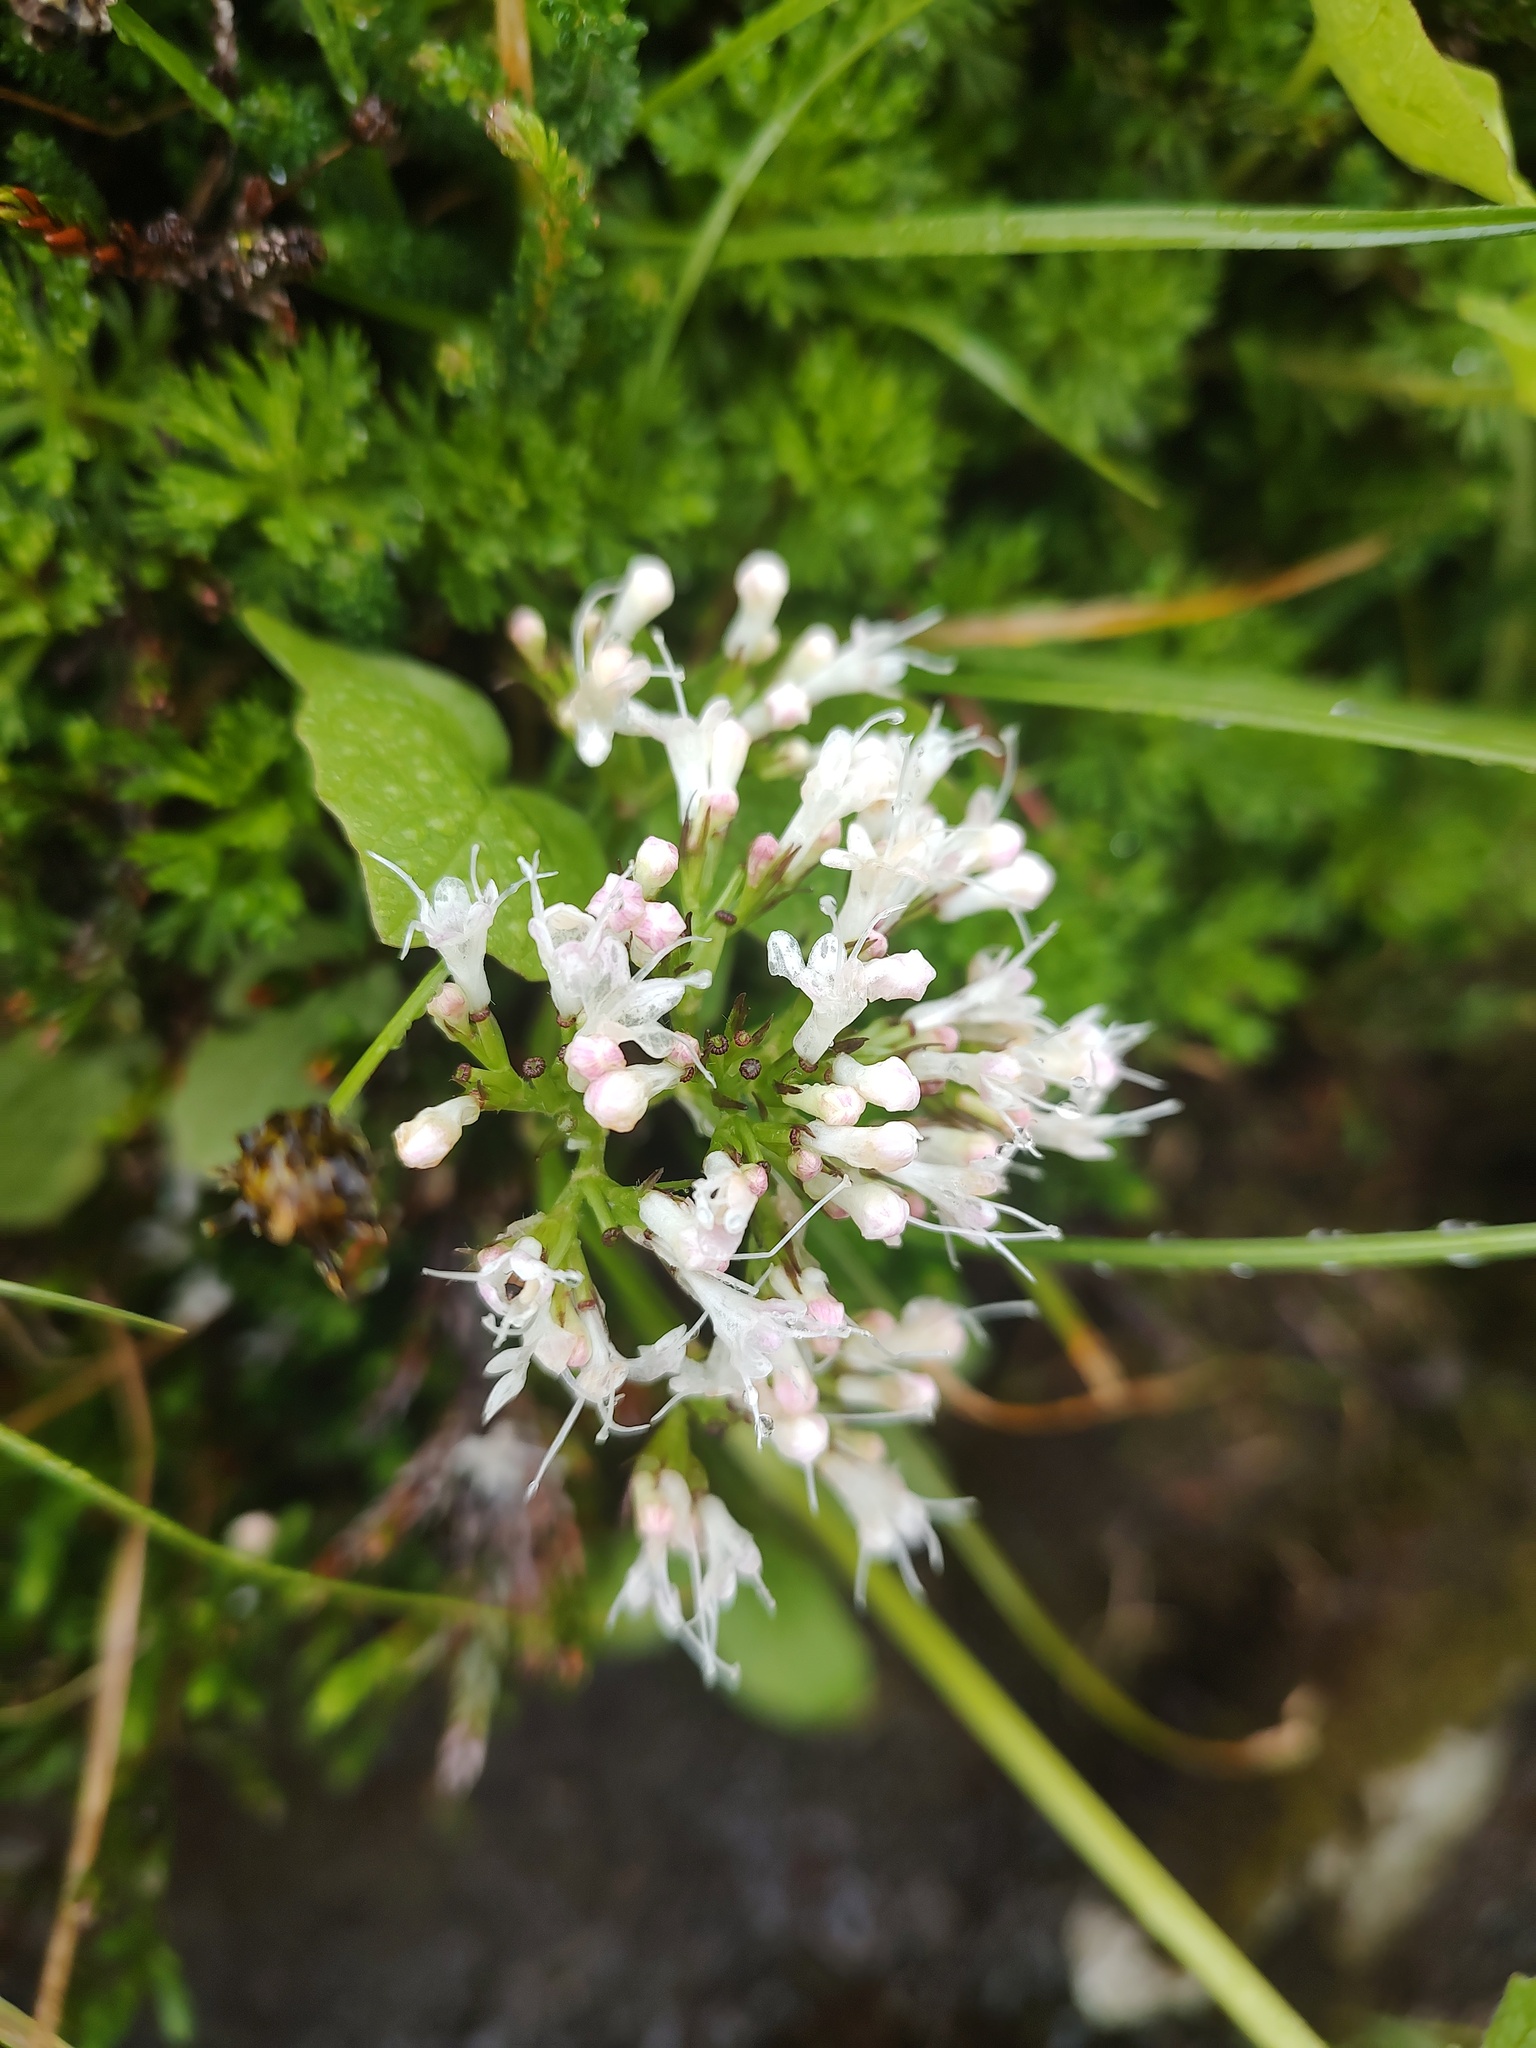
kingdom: Plantae
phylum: Tracheophyta
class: Magnoliopsida
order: Dipsacales
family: Caprifoliaceae
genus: Valeriana
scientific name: Valeriana sitchensis
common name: Pacific valerian
